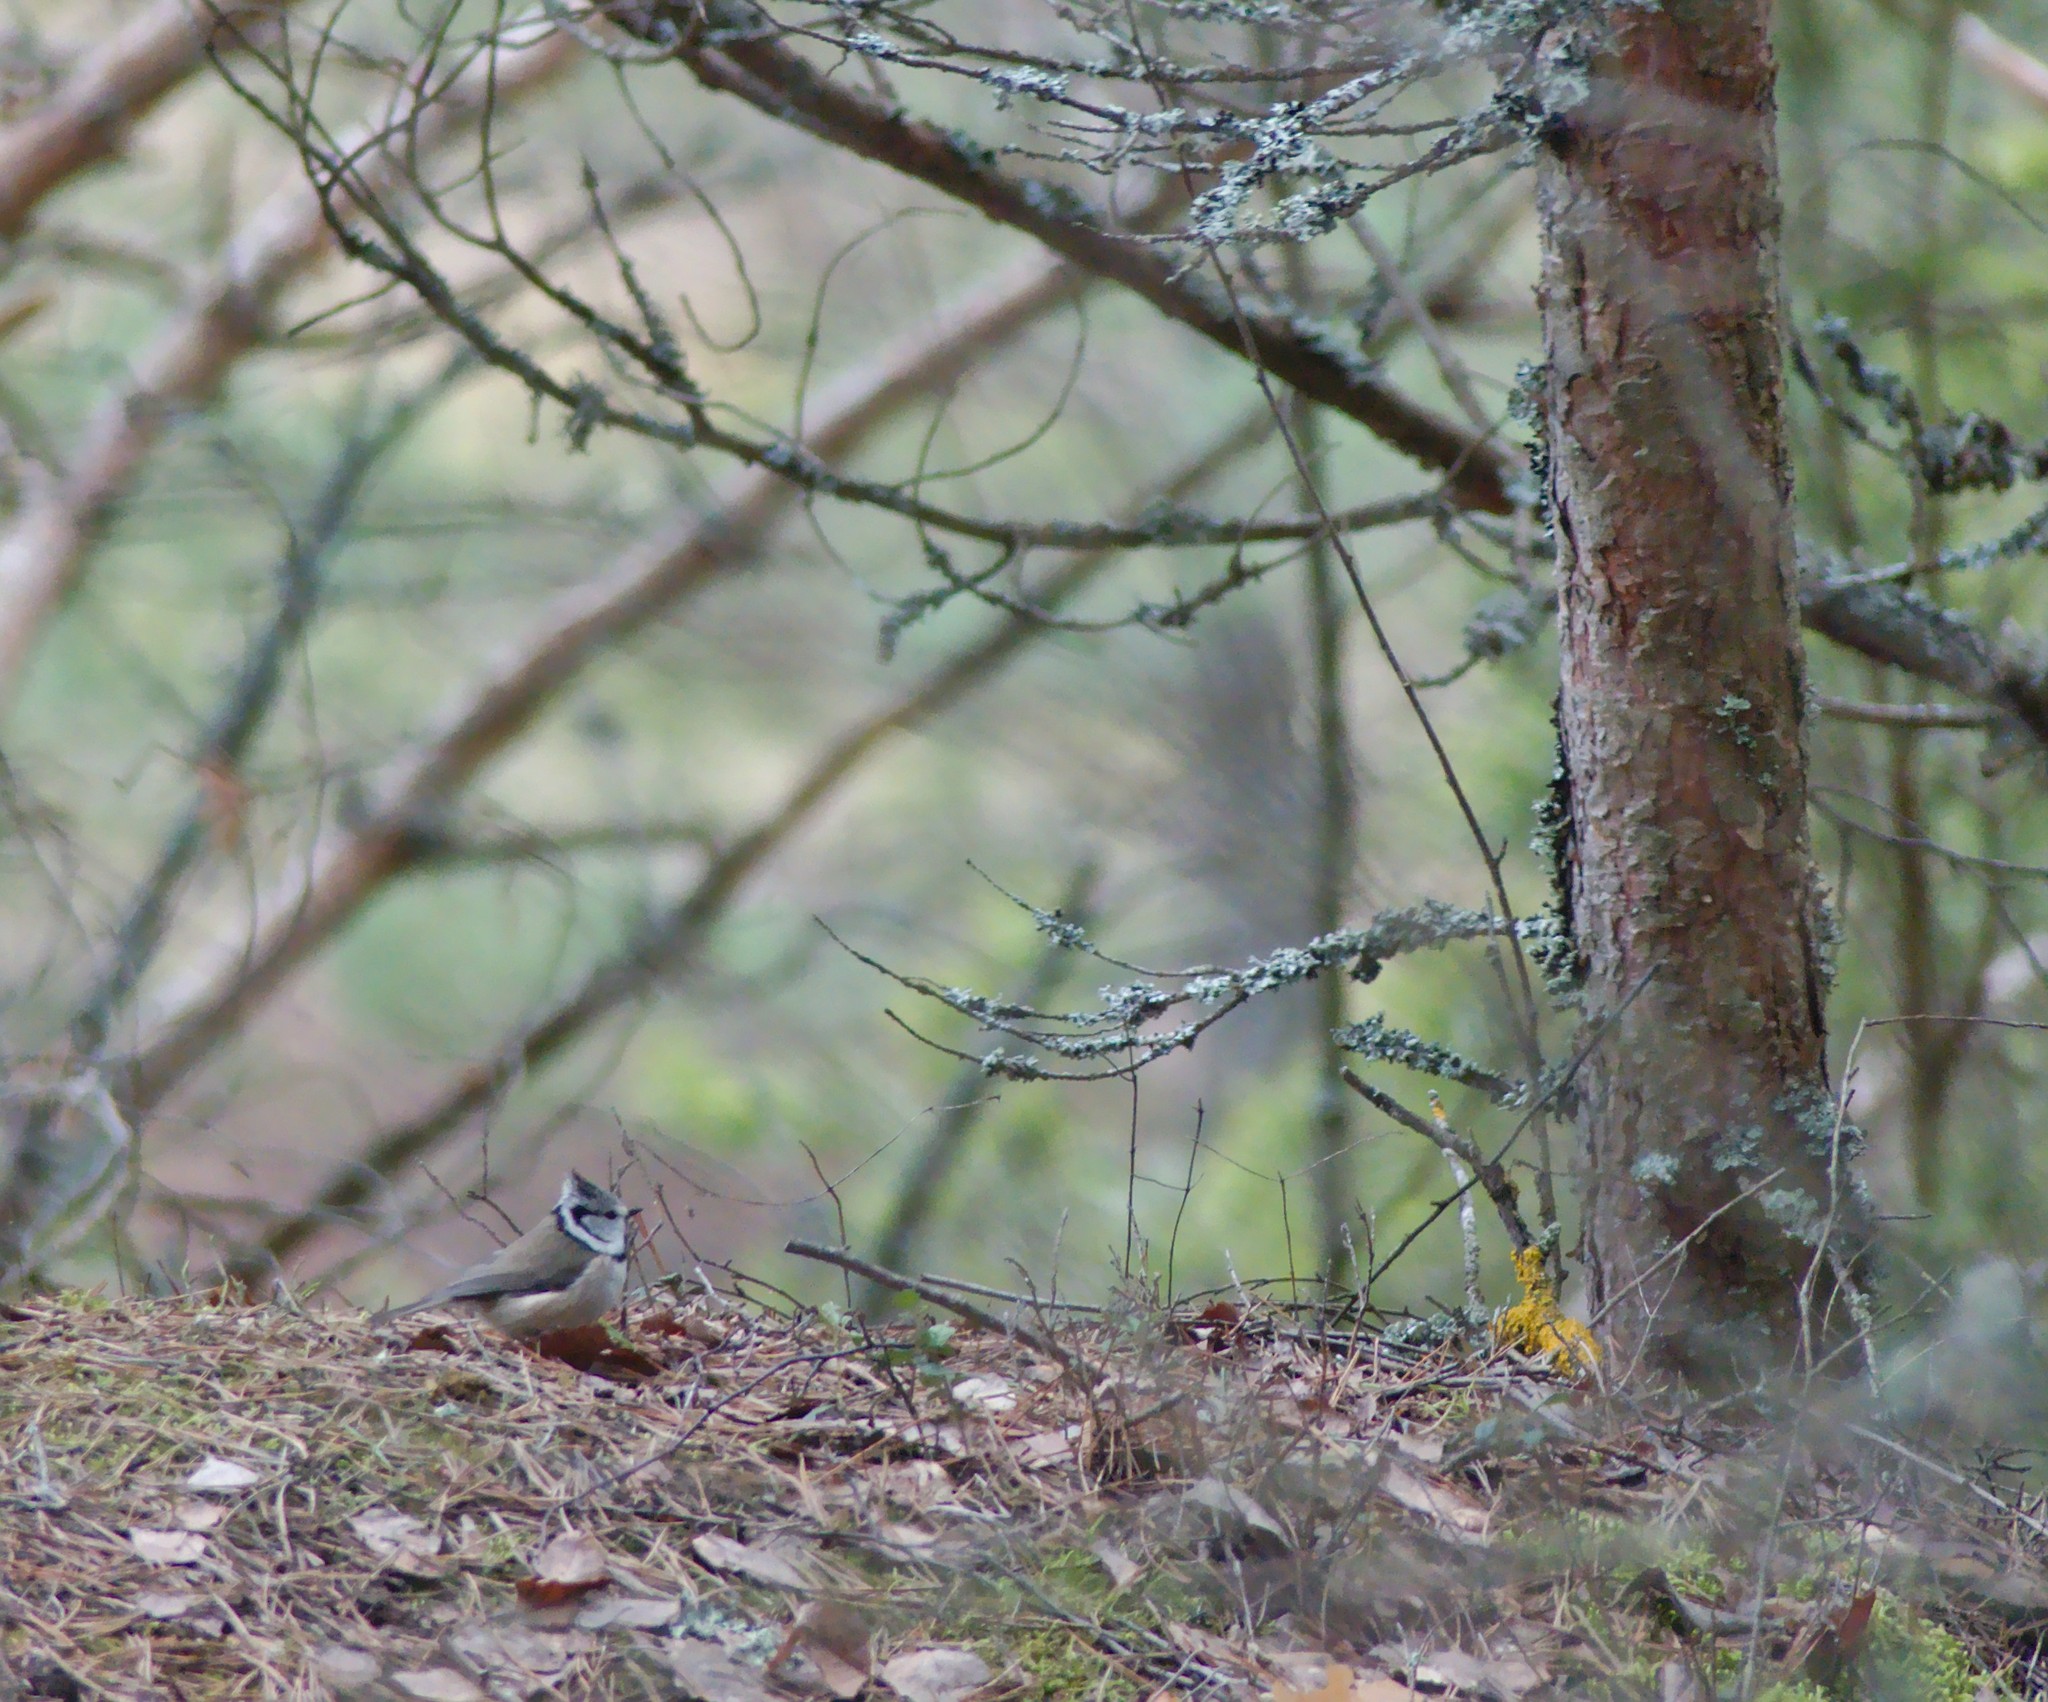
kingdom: Animalia
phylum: Chordata
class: Aves
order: Passeriformes
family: Paridae
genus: Lophophanes
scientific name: Lophophanes cristatus
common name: European crested tit
